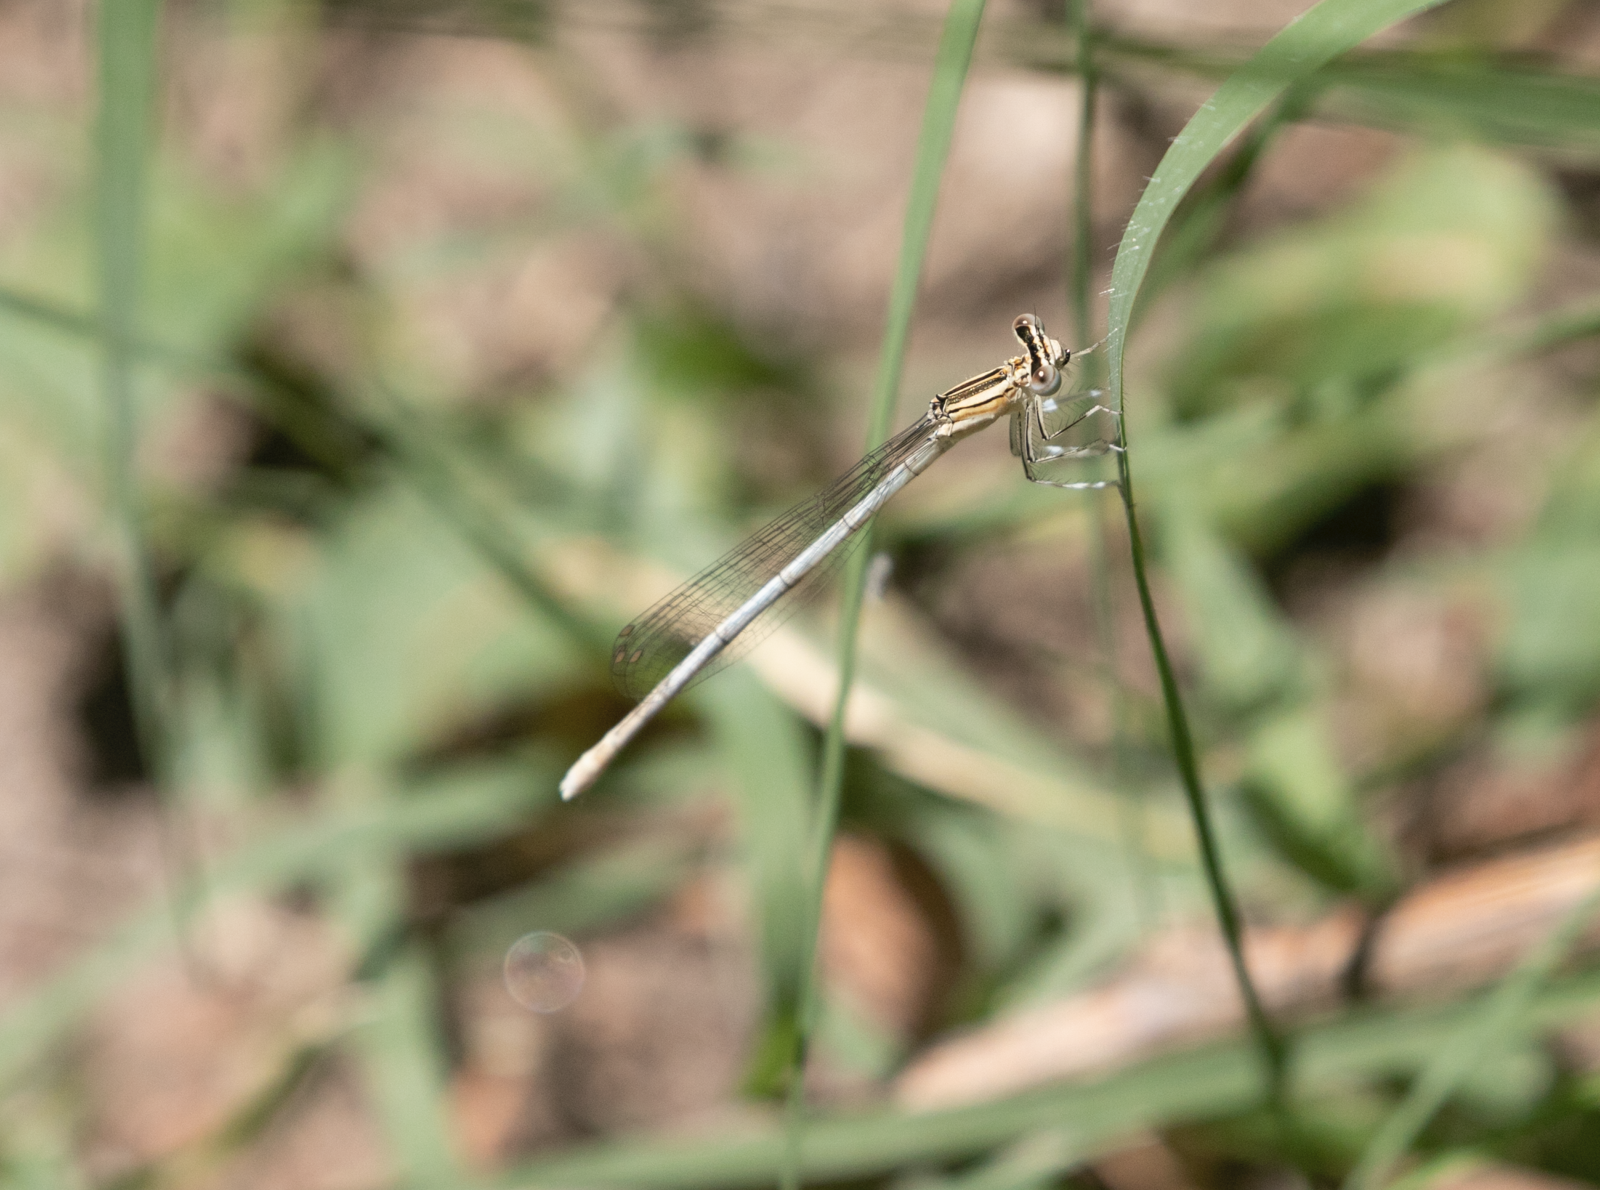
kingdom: Animalia
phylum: Arthropoda
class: Insecta
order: Odonata
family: Platycnemididae
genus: Platycnemis
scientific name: Platycnemis pennipes
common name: White-legged damselfly
